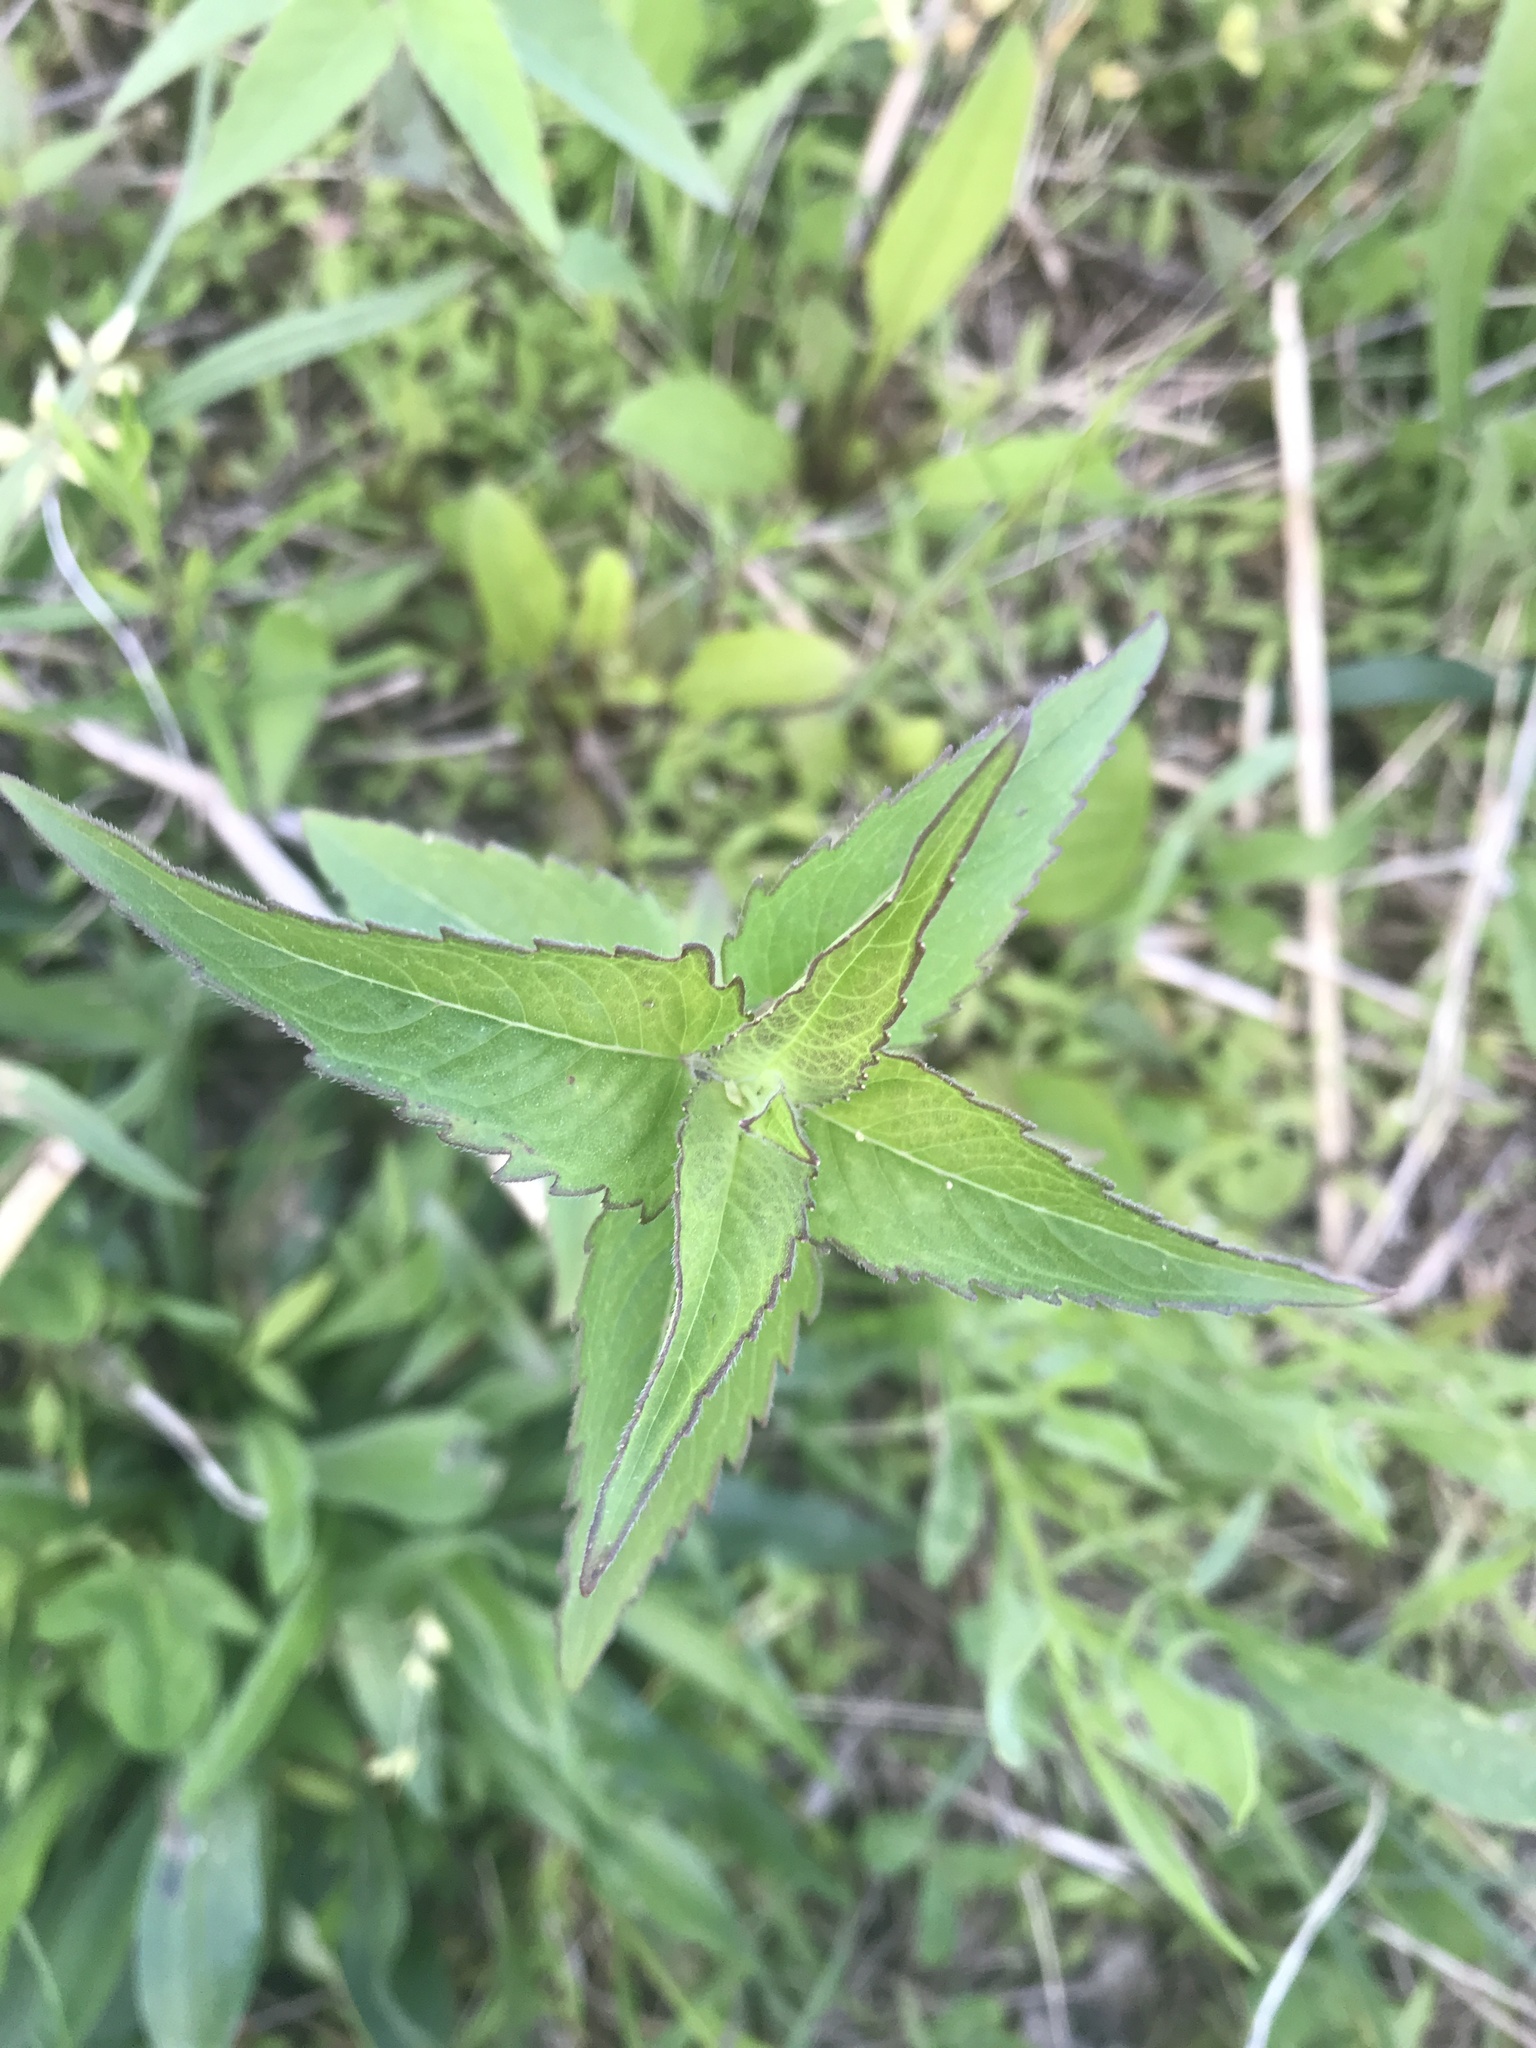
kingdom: Plantae
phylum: Tracheophyta
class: Magnoliopsida
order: Lamiales
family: Lamiaceae
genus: Monarda
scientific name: Monarda fistulosa
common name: Purple beebalm
